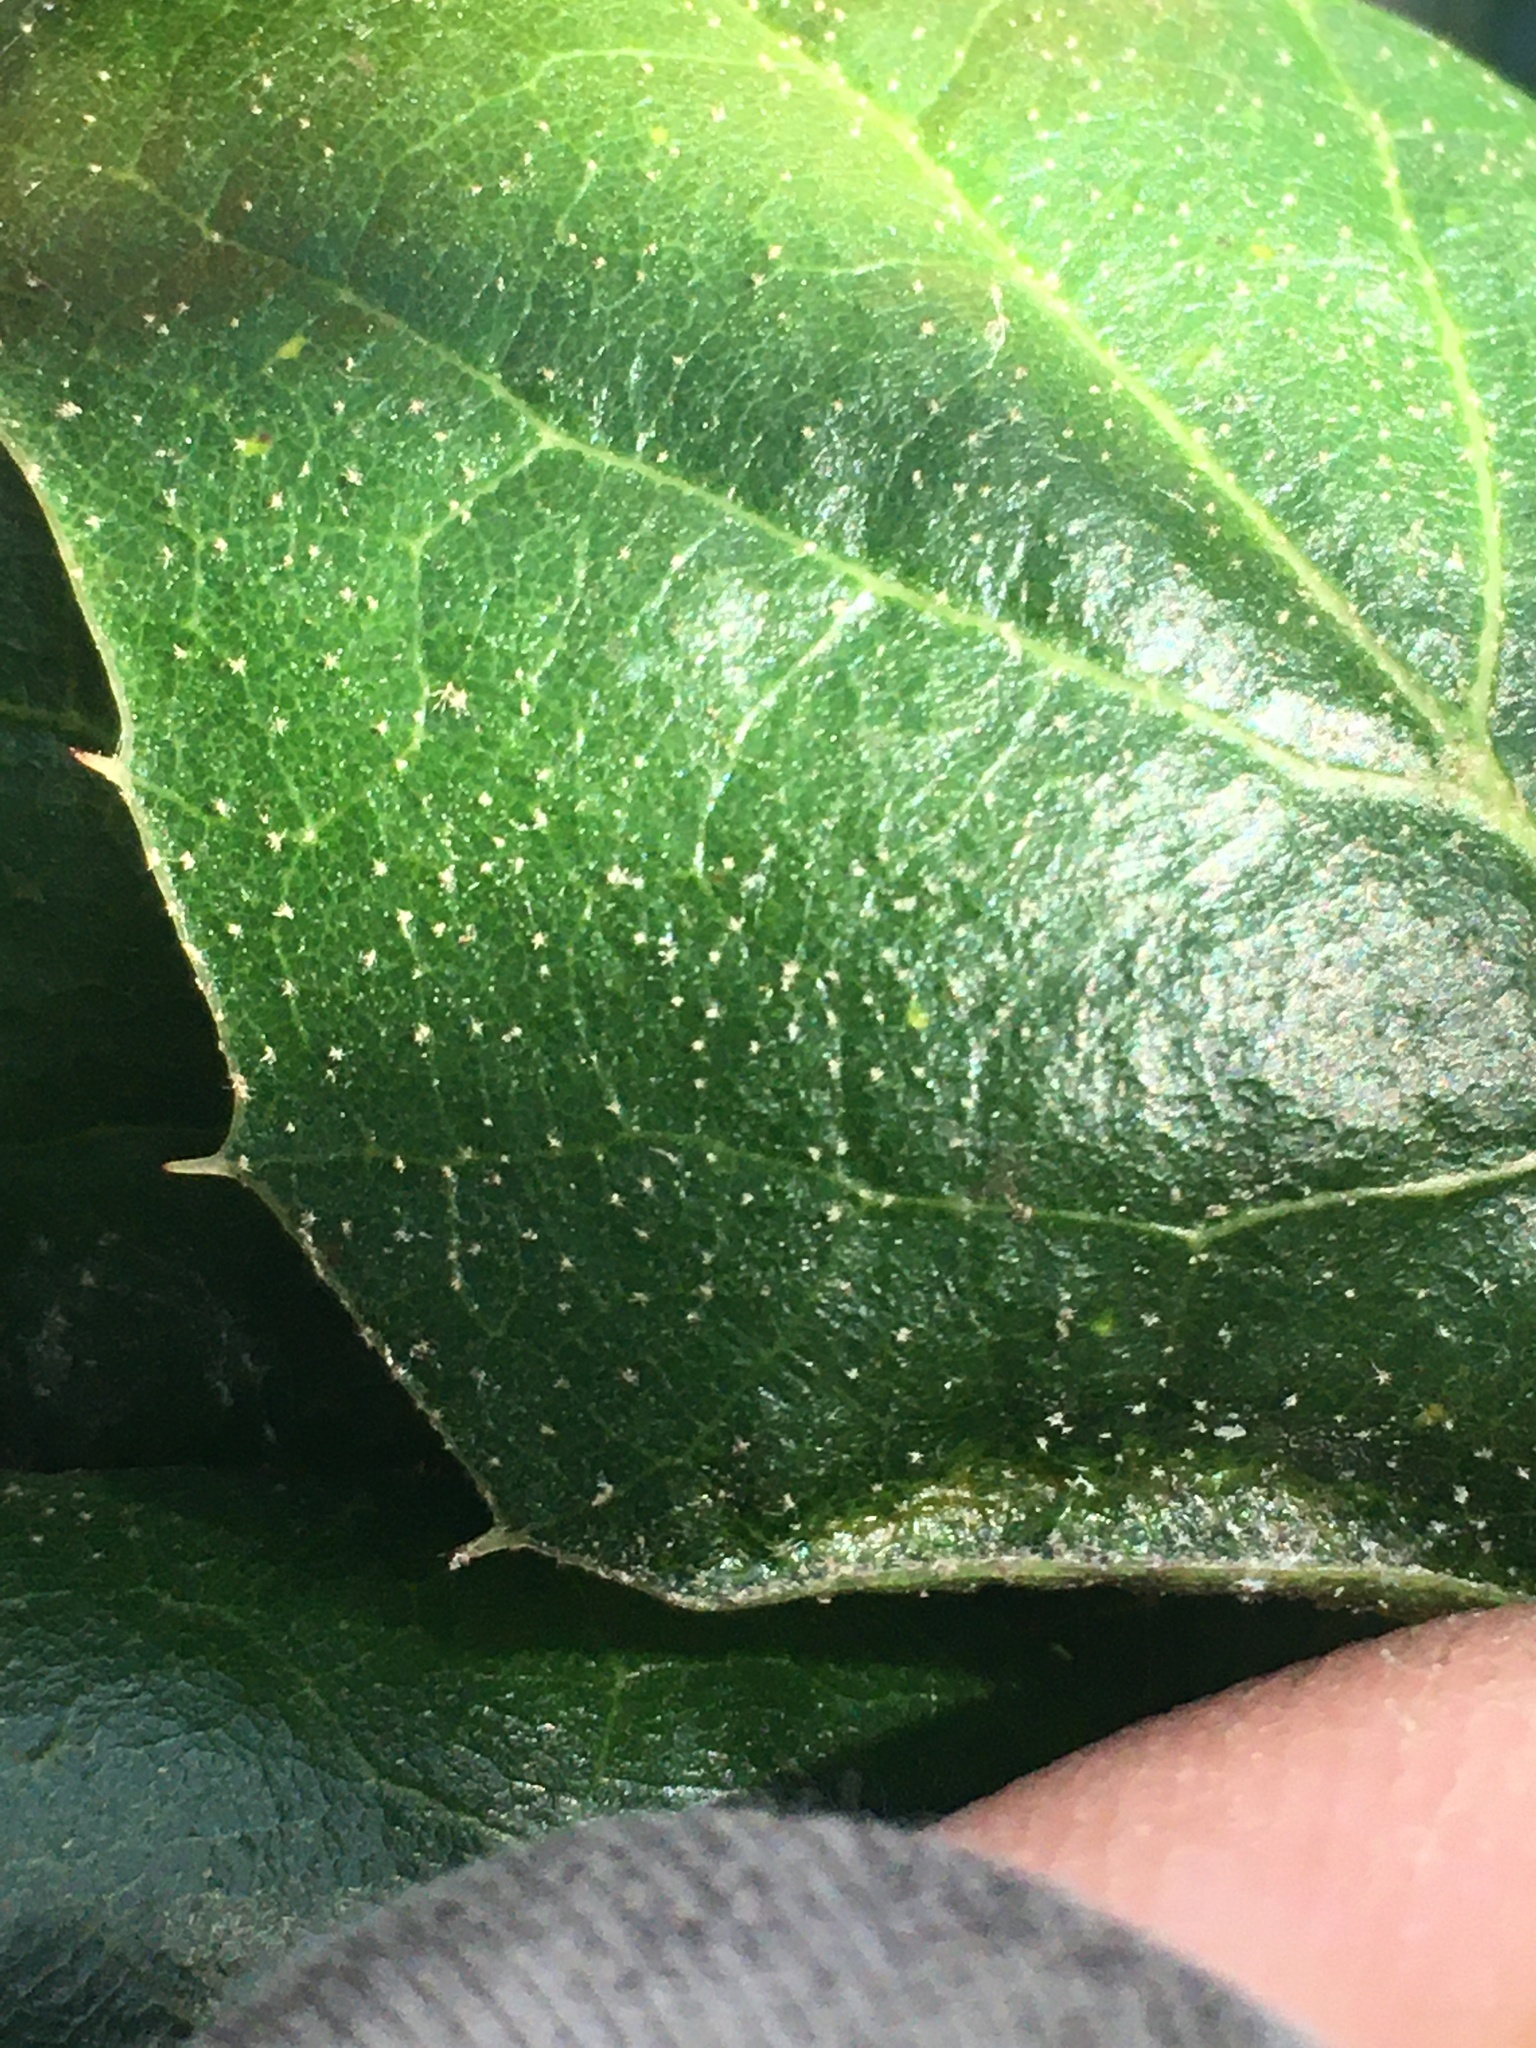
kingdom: Plantae
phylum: Tracheophyta
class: Magnoliopsida
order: Fagales
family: Fagaceae
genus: Quercus
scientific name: Quercus agrifolia
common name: California live oak
